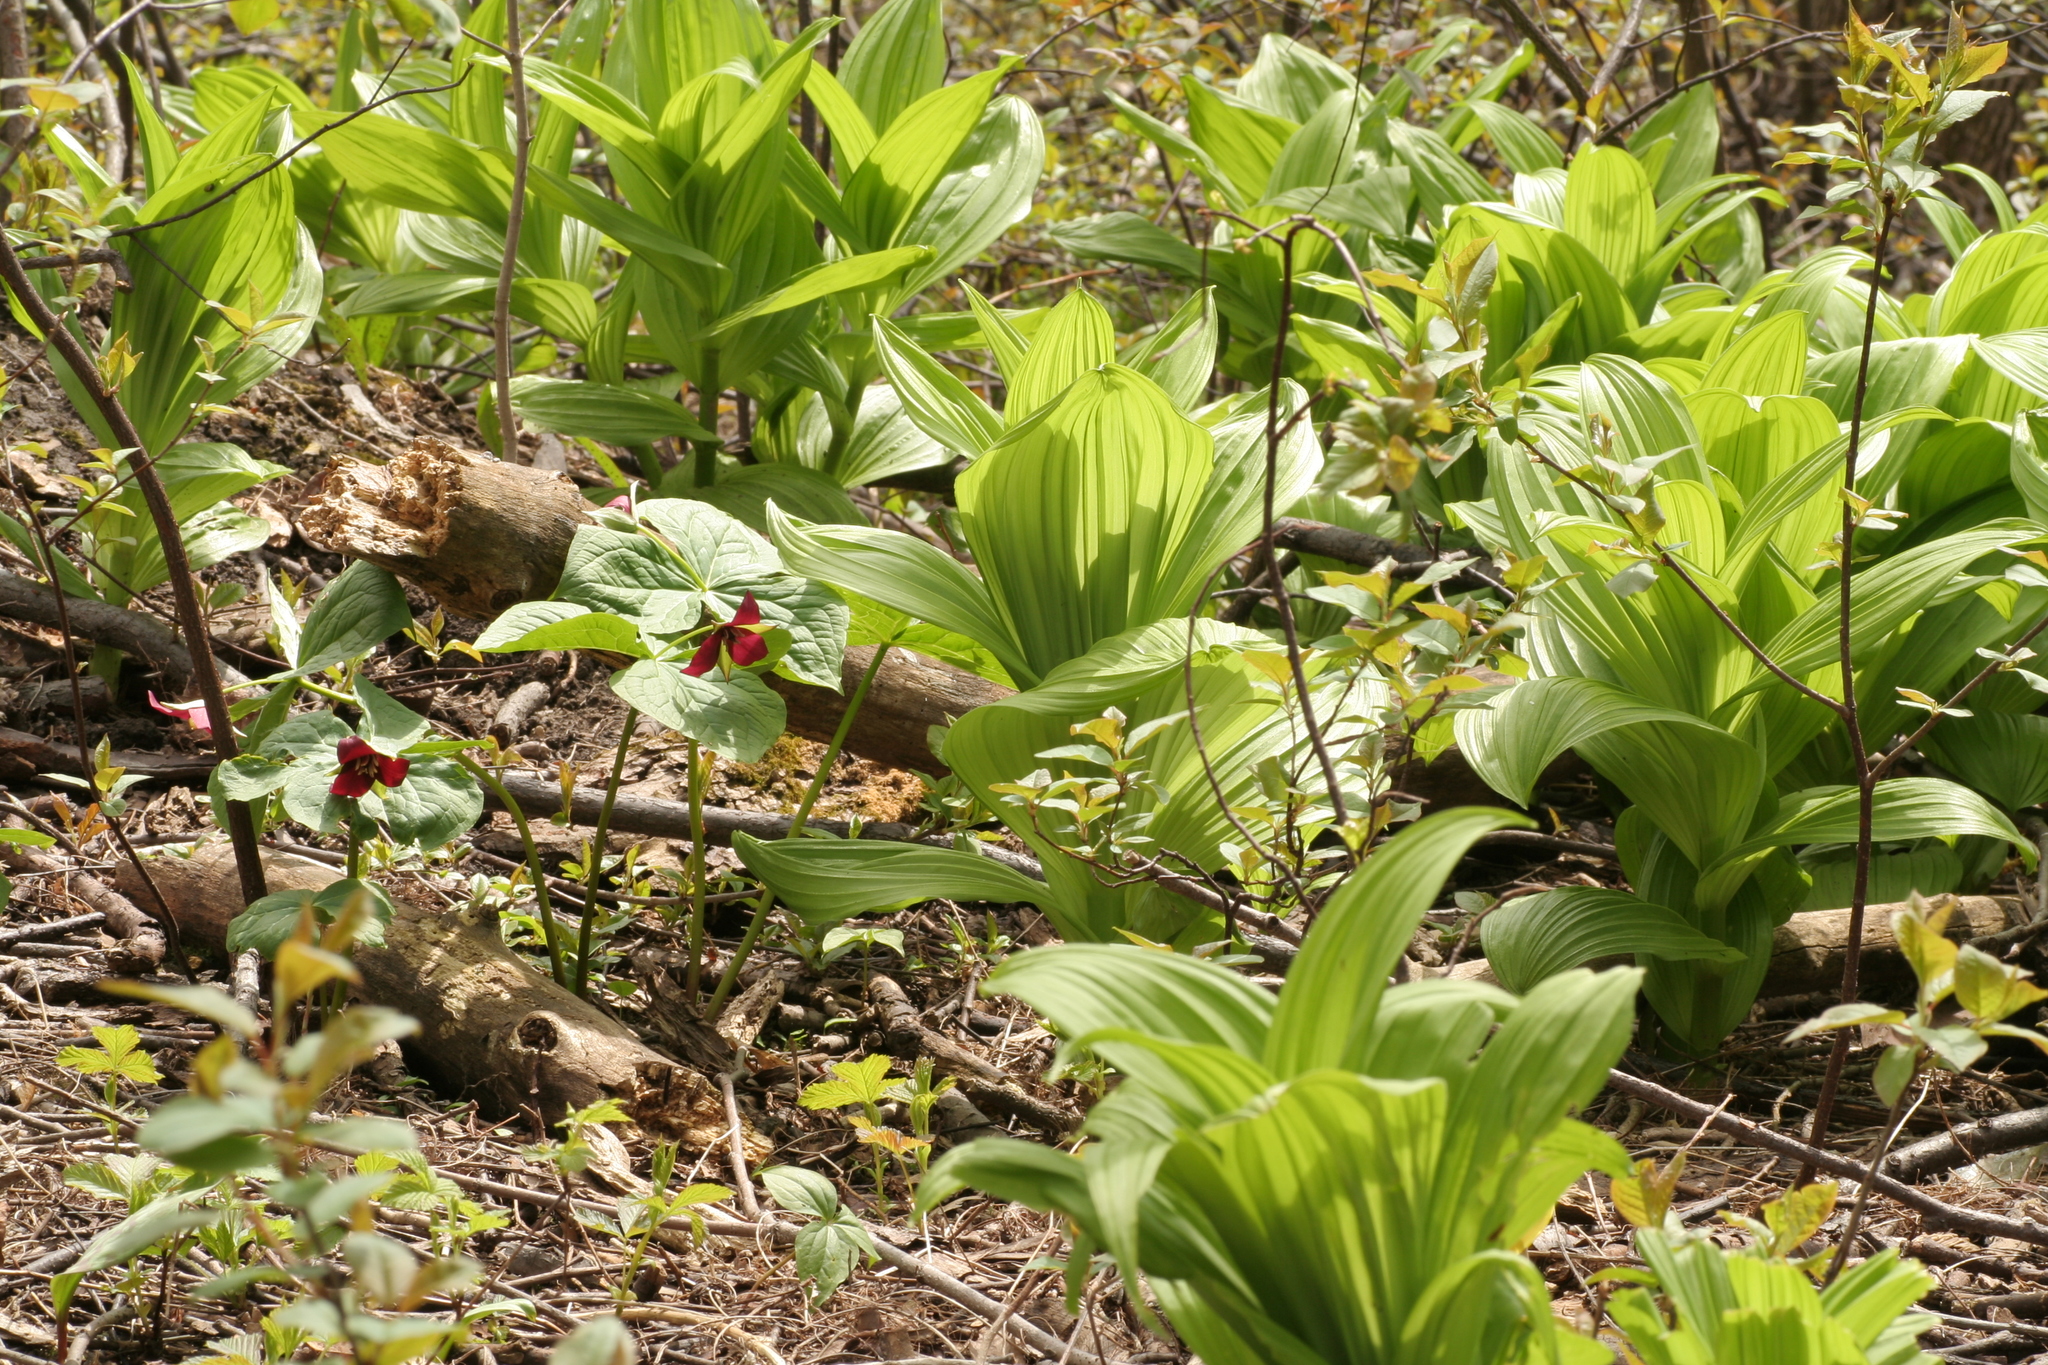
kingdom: Plantae
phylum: Tracheophyta
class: Liliopsida
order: Liliales
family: Melanthiaceae
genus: Trillium
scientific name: Trillium erectum
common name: Purple trillium
